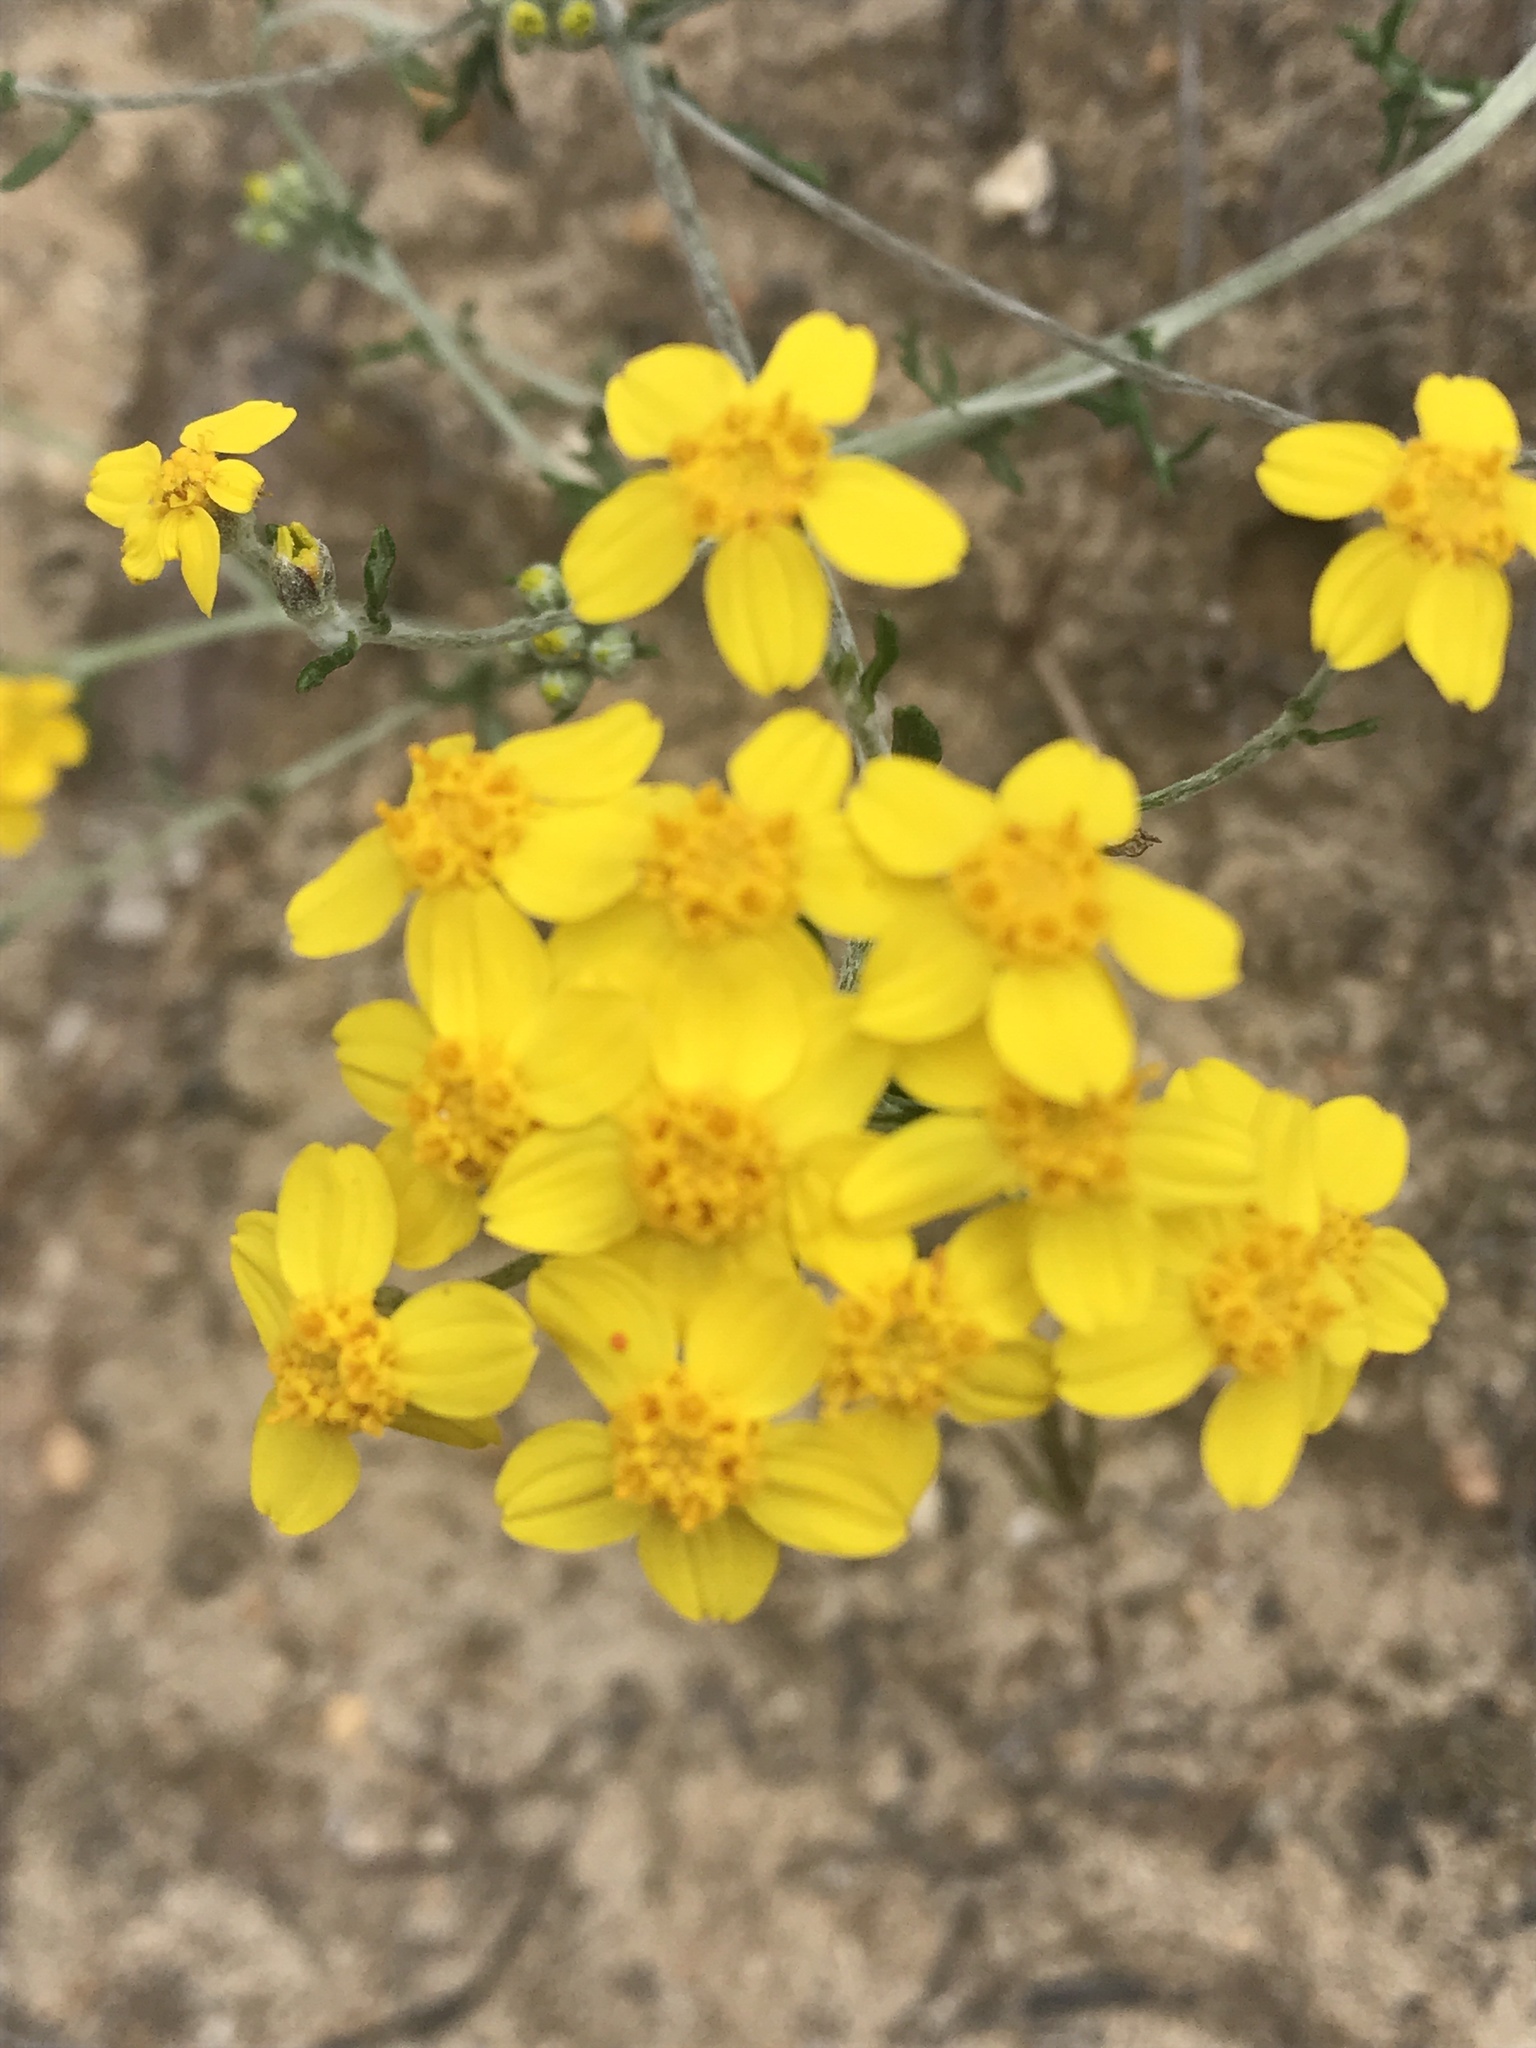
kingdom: Plantae
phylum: Tracheophyta
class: Magnoliopsida
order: Asterales
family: Asteraceae
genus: Eriophyllum
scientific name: Eriophyllum confertiflorum
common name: Golden-yarrow
